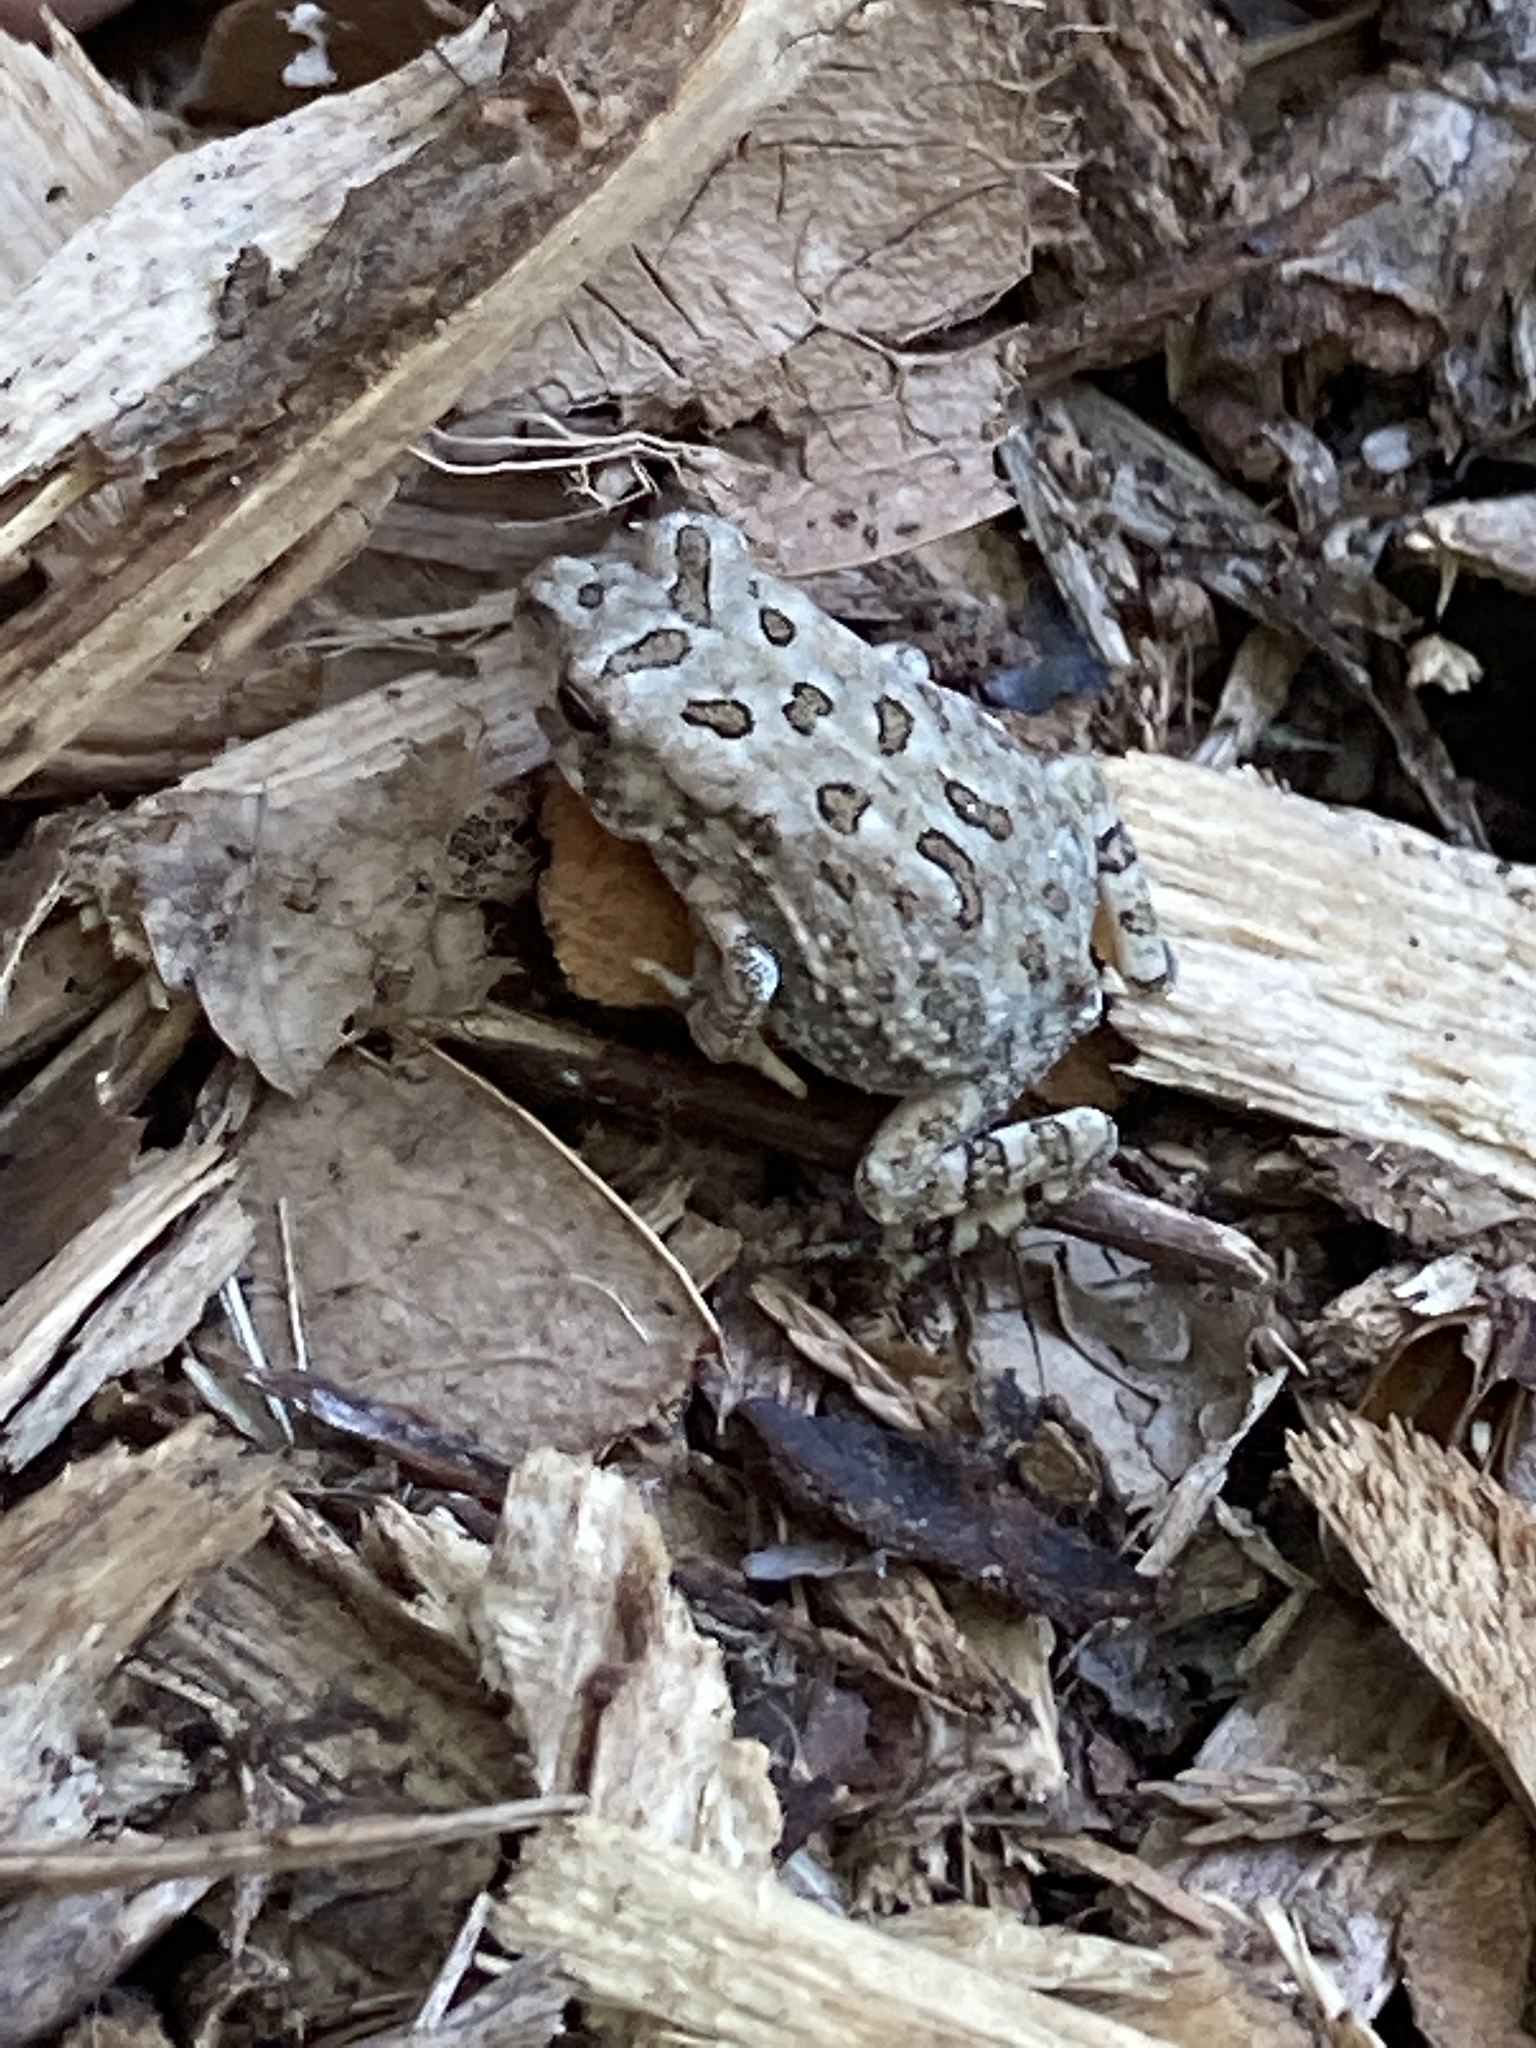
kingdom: Animalia
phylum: Chordata
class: Amphibia
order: Anura
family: Bufonidae
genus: Anaxyrus
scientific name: Anaxyrus fowleri
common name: Fowler's toad
